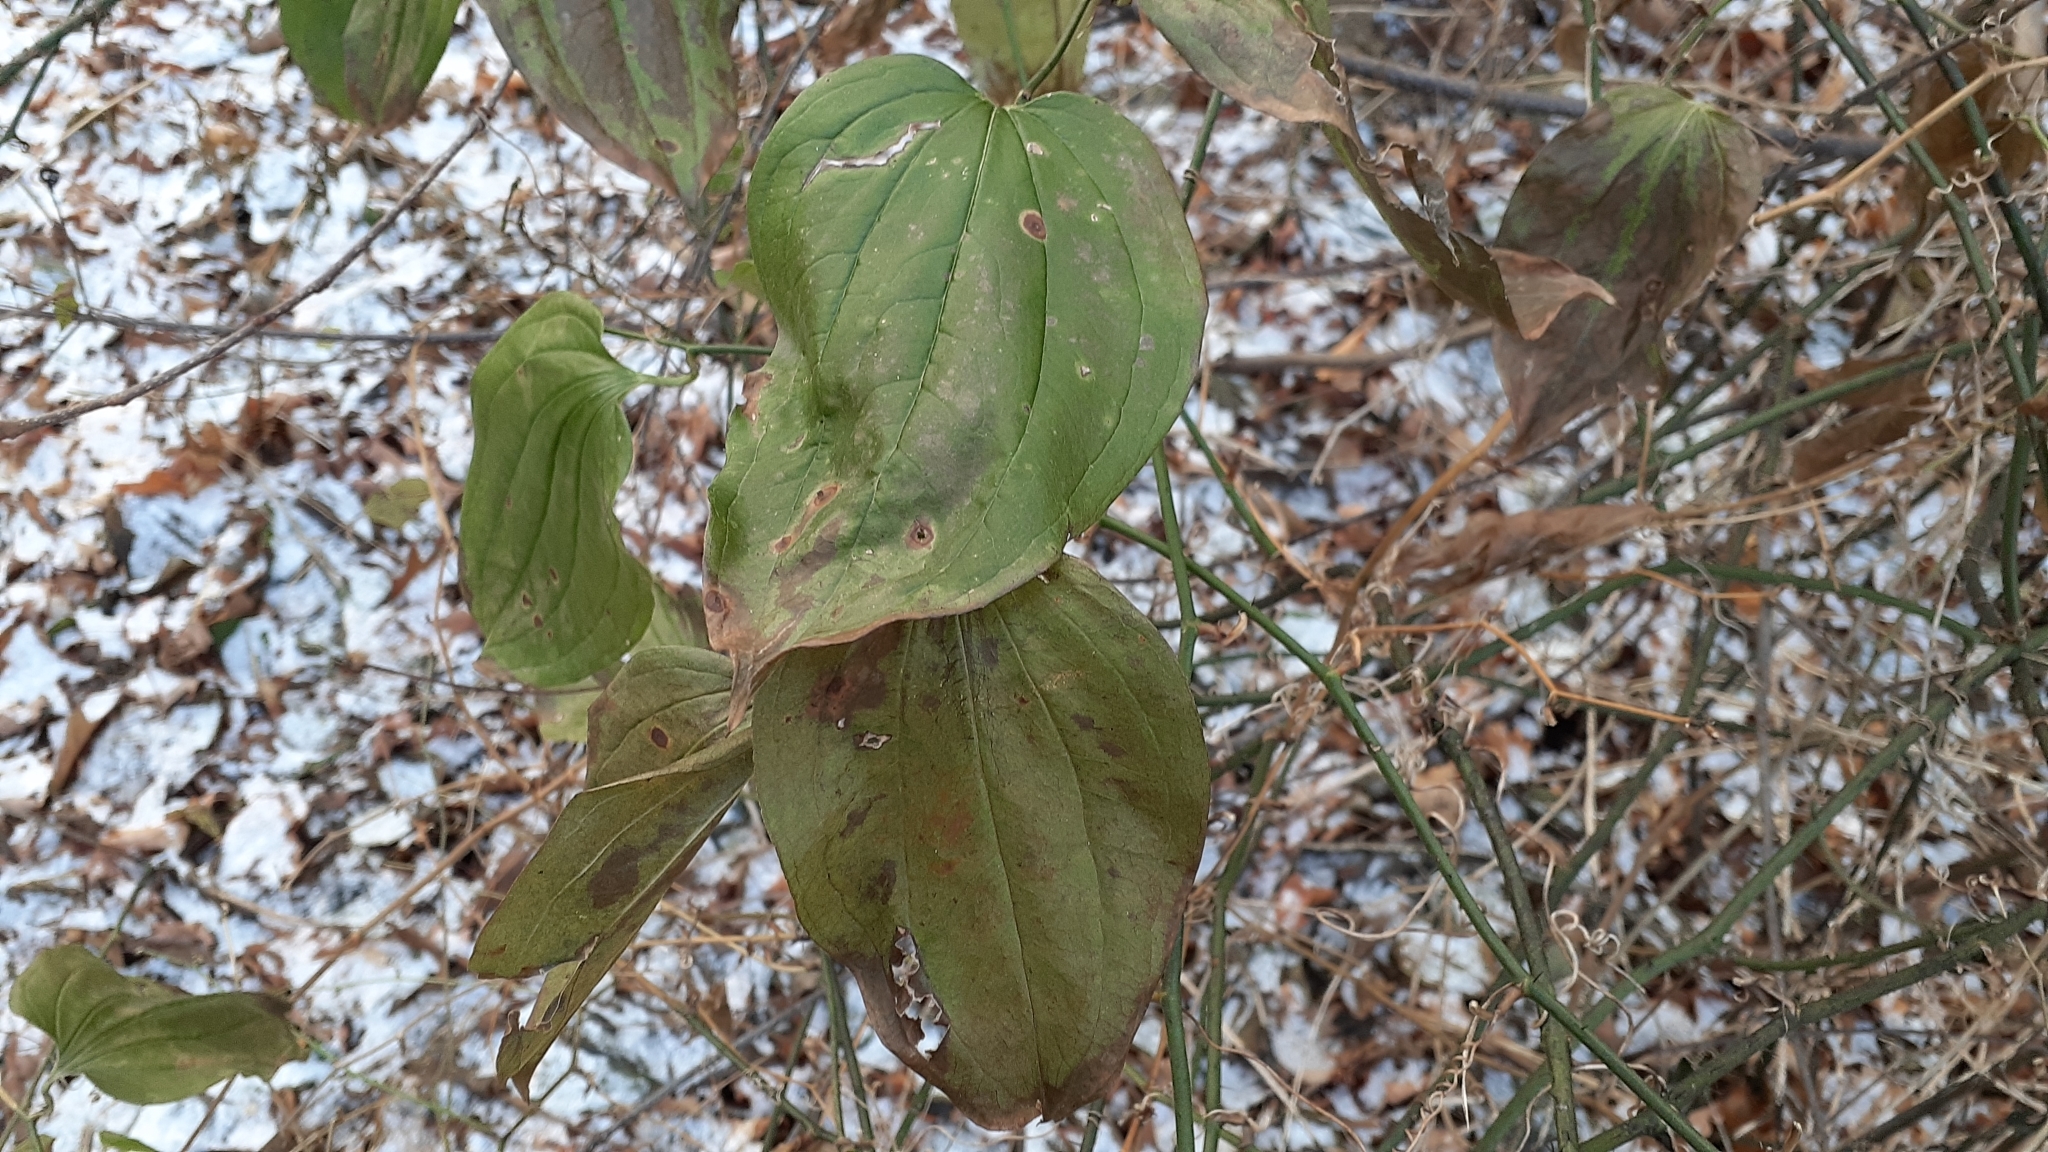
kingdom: Plantae
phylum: Tracheophyta
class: Liliopsida
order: Liliales
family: Smilacaceae
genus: Smilax
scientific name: Smilax tamnoides
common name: Hellfetter
